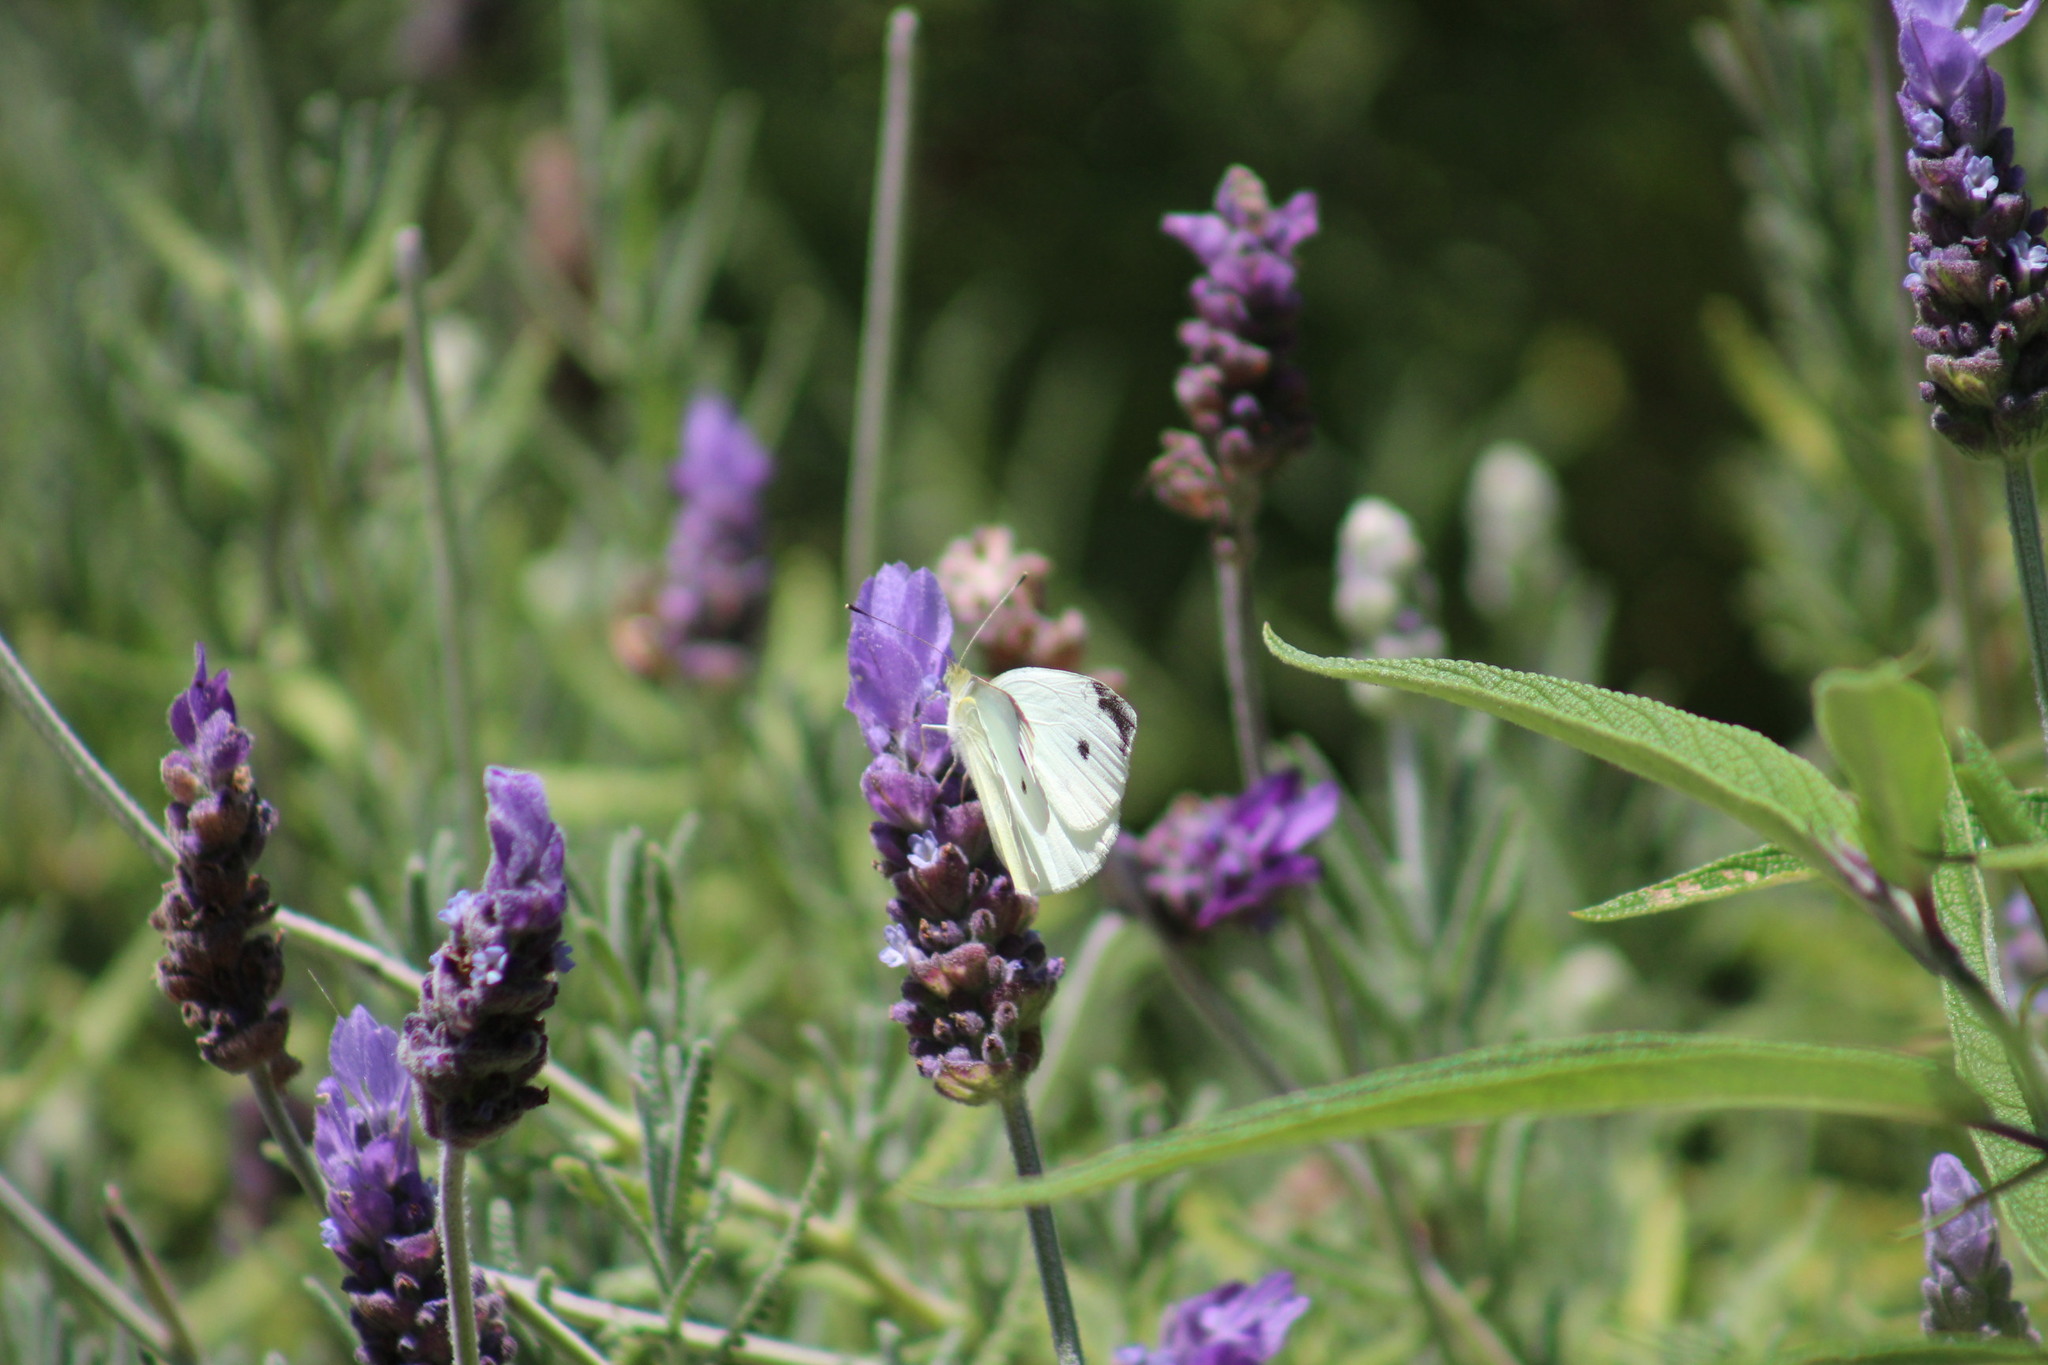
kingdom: Animalia
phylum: Arthropoda
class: Insecta
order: Lepidoptera
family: Pieridae
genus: Pieris
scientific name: Pieris rapae
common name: Small white
